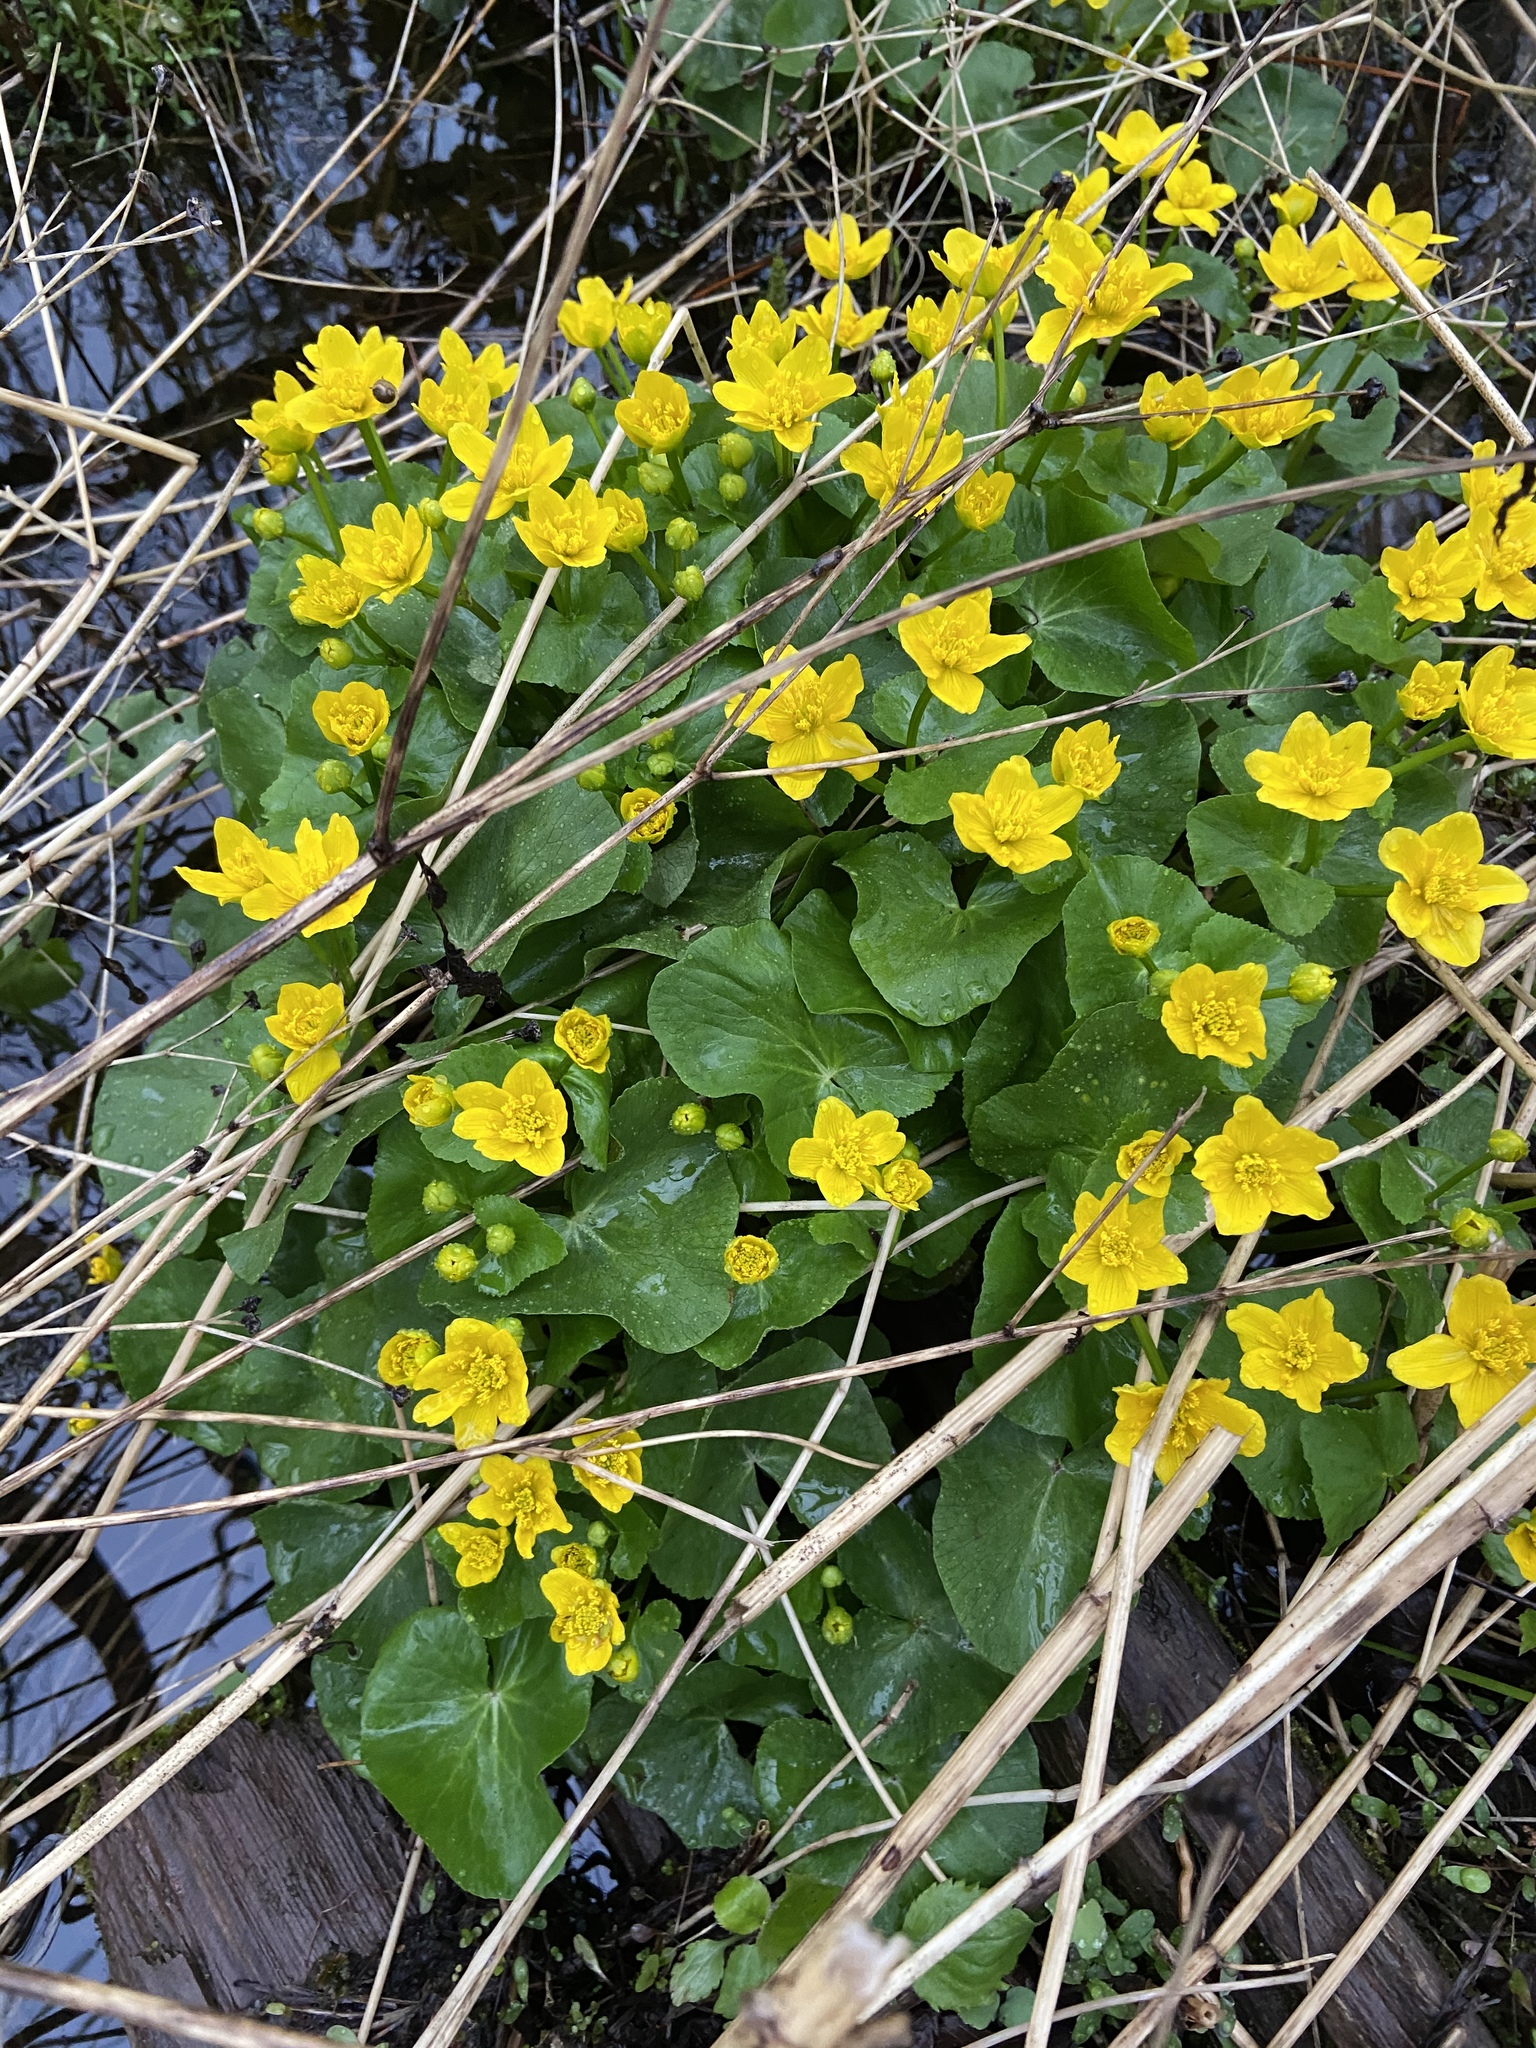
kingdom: Plantae
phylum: Tracheophyta
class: Magnoliopsida
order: Ranunculales
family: Ranunculaceae
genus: Caltha
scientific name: Caltha palustris
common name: Marsh marigold
